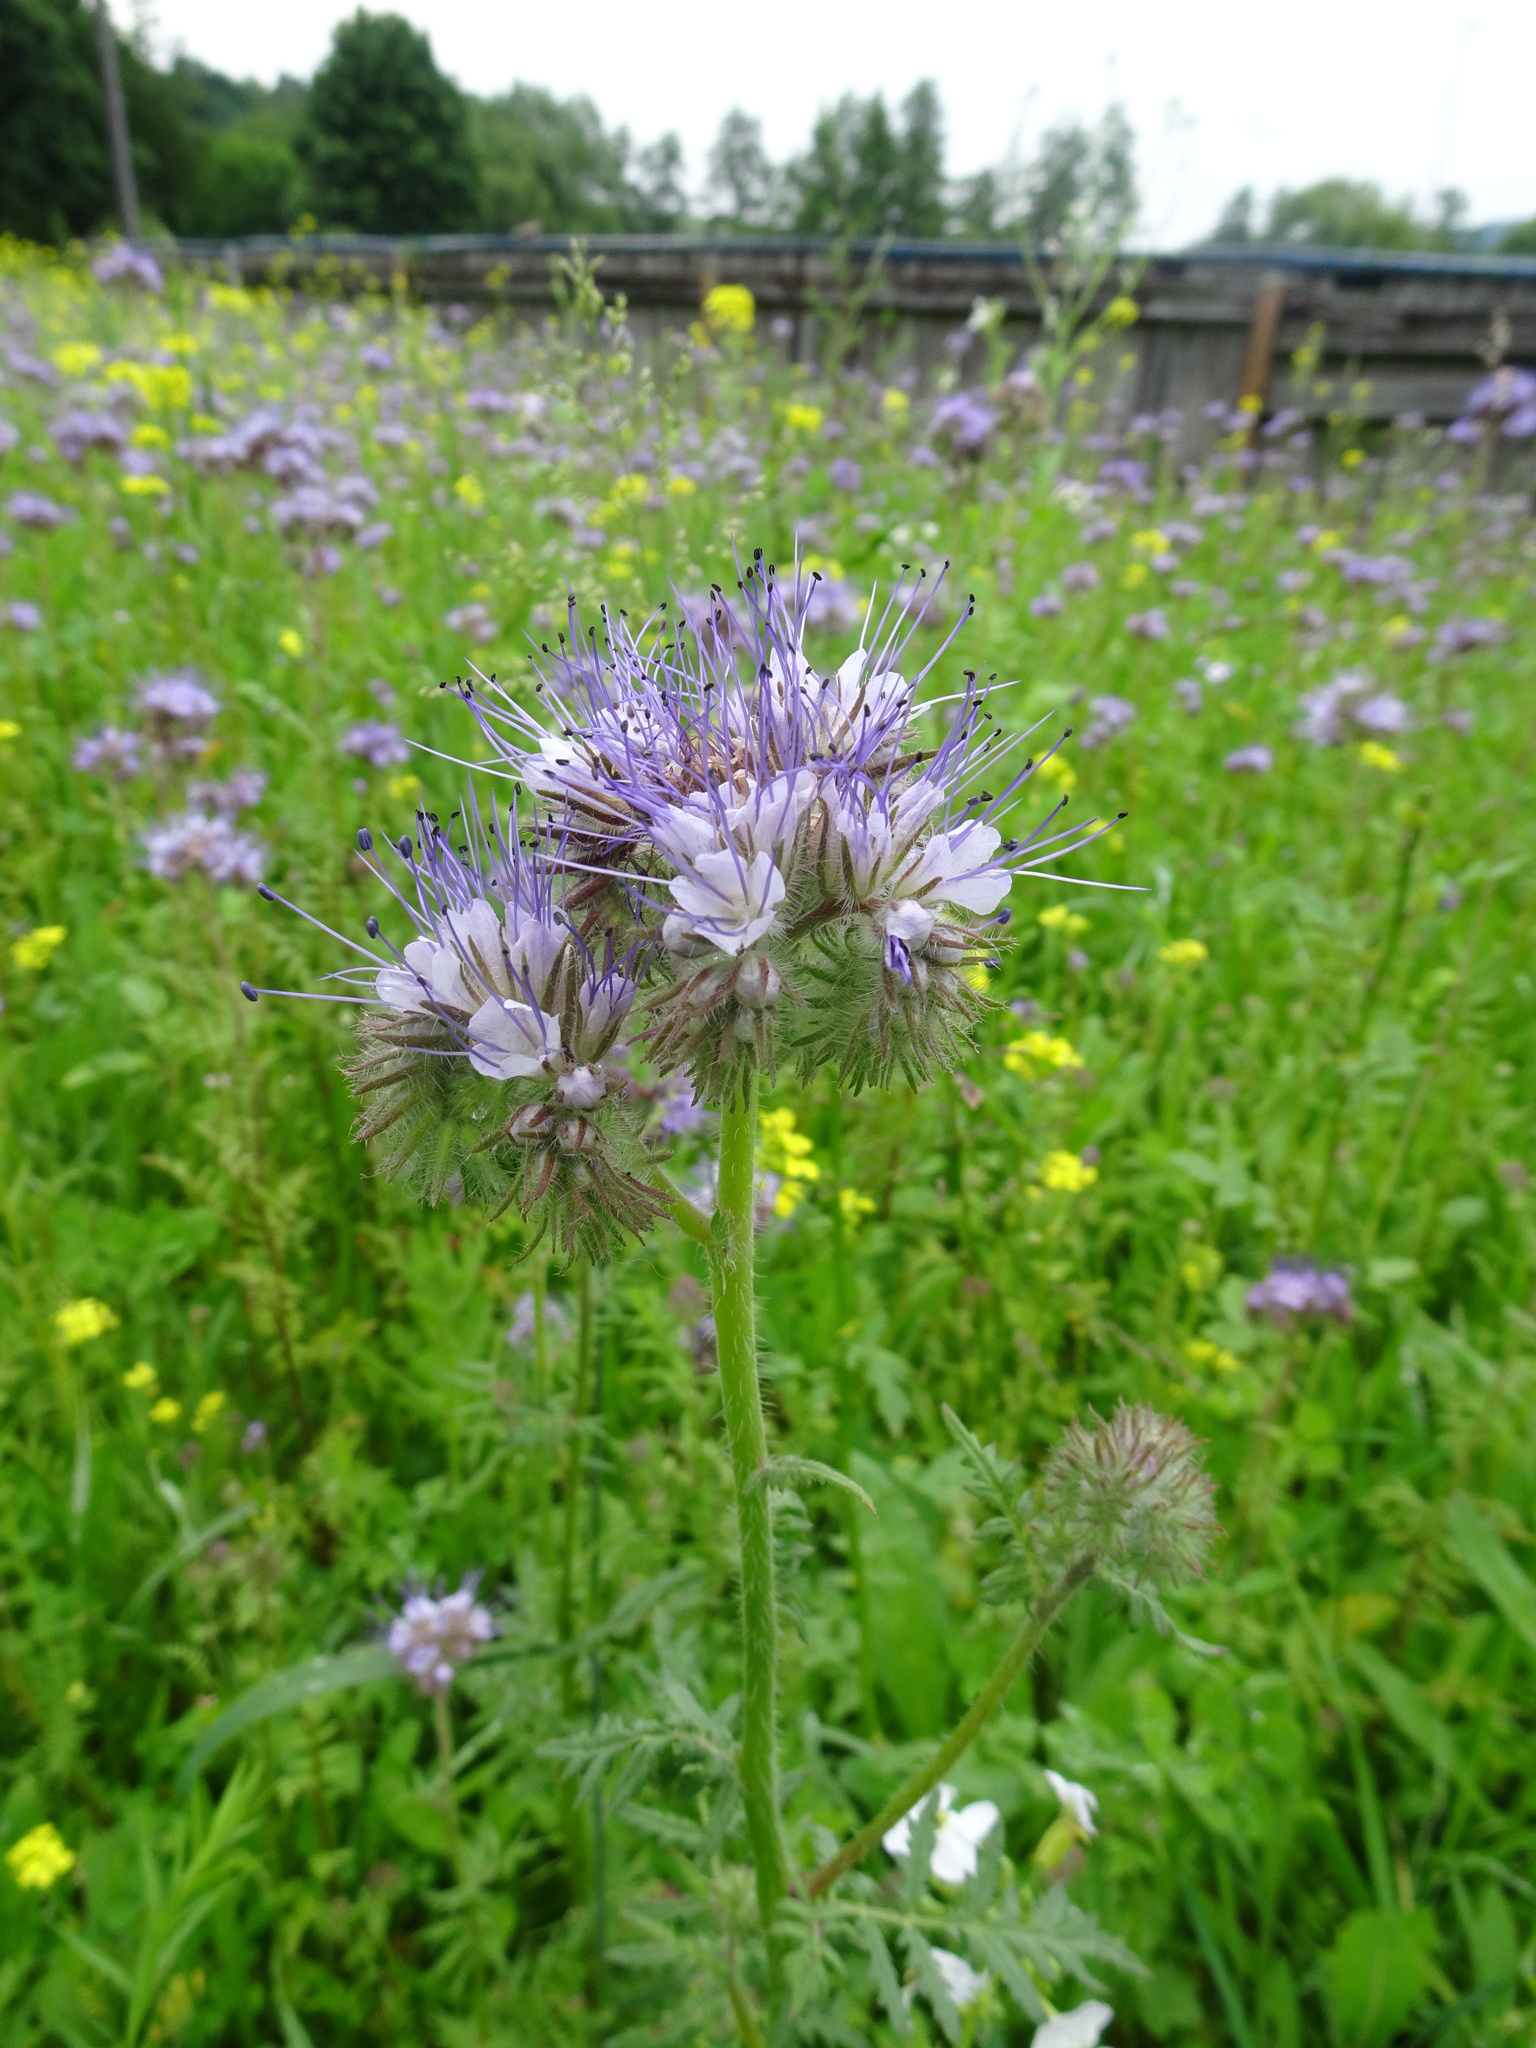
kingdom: Plantae
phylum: Tracheophyta
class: Magnoliopsida
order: Boraginales
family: Hydrophyllaceae
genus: Phacelia
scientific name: Phacelia tanacetifolia
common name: Phacelia
